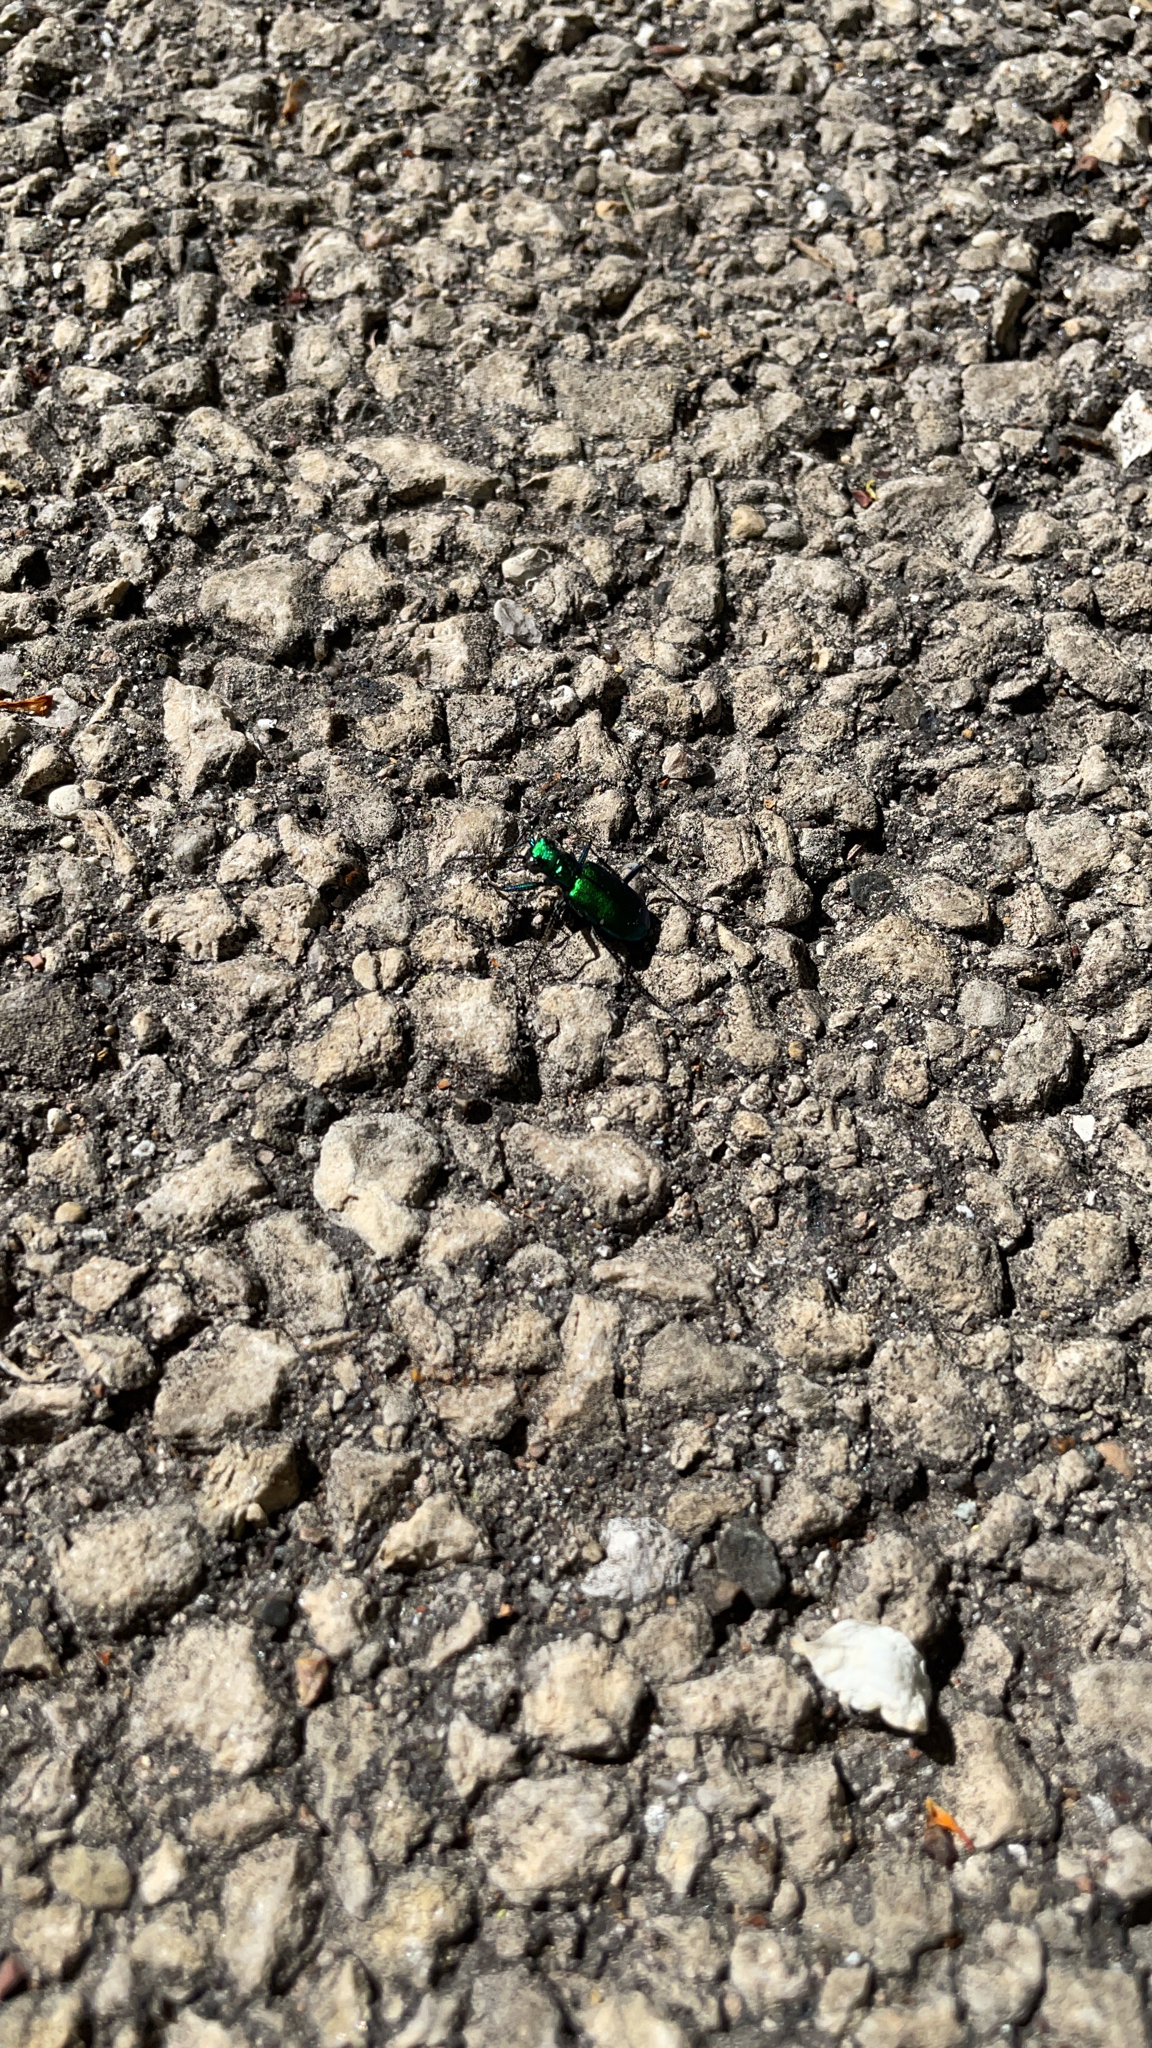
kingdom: Animalia
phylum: Arthropoda
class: Insecta
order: Coleoptera
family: Carabidae
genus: Cicindela
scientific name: Cicindela sexguttata
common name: Six-spotted tiger beetle
